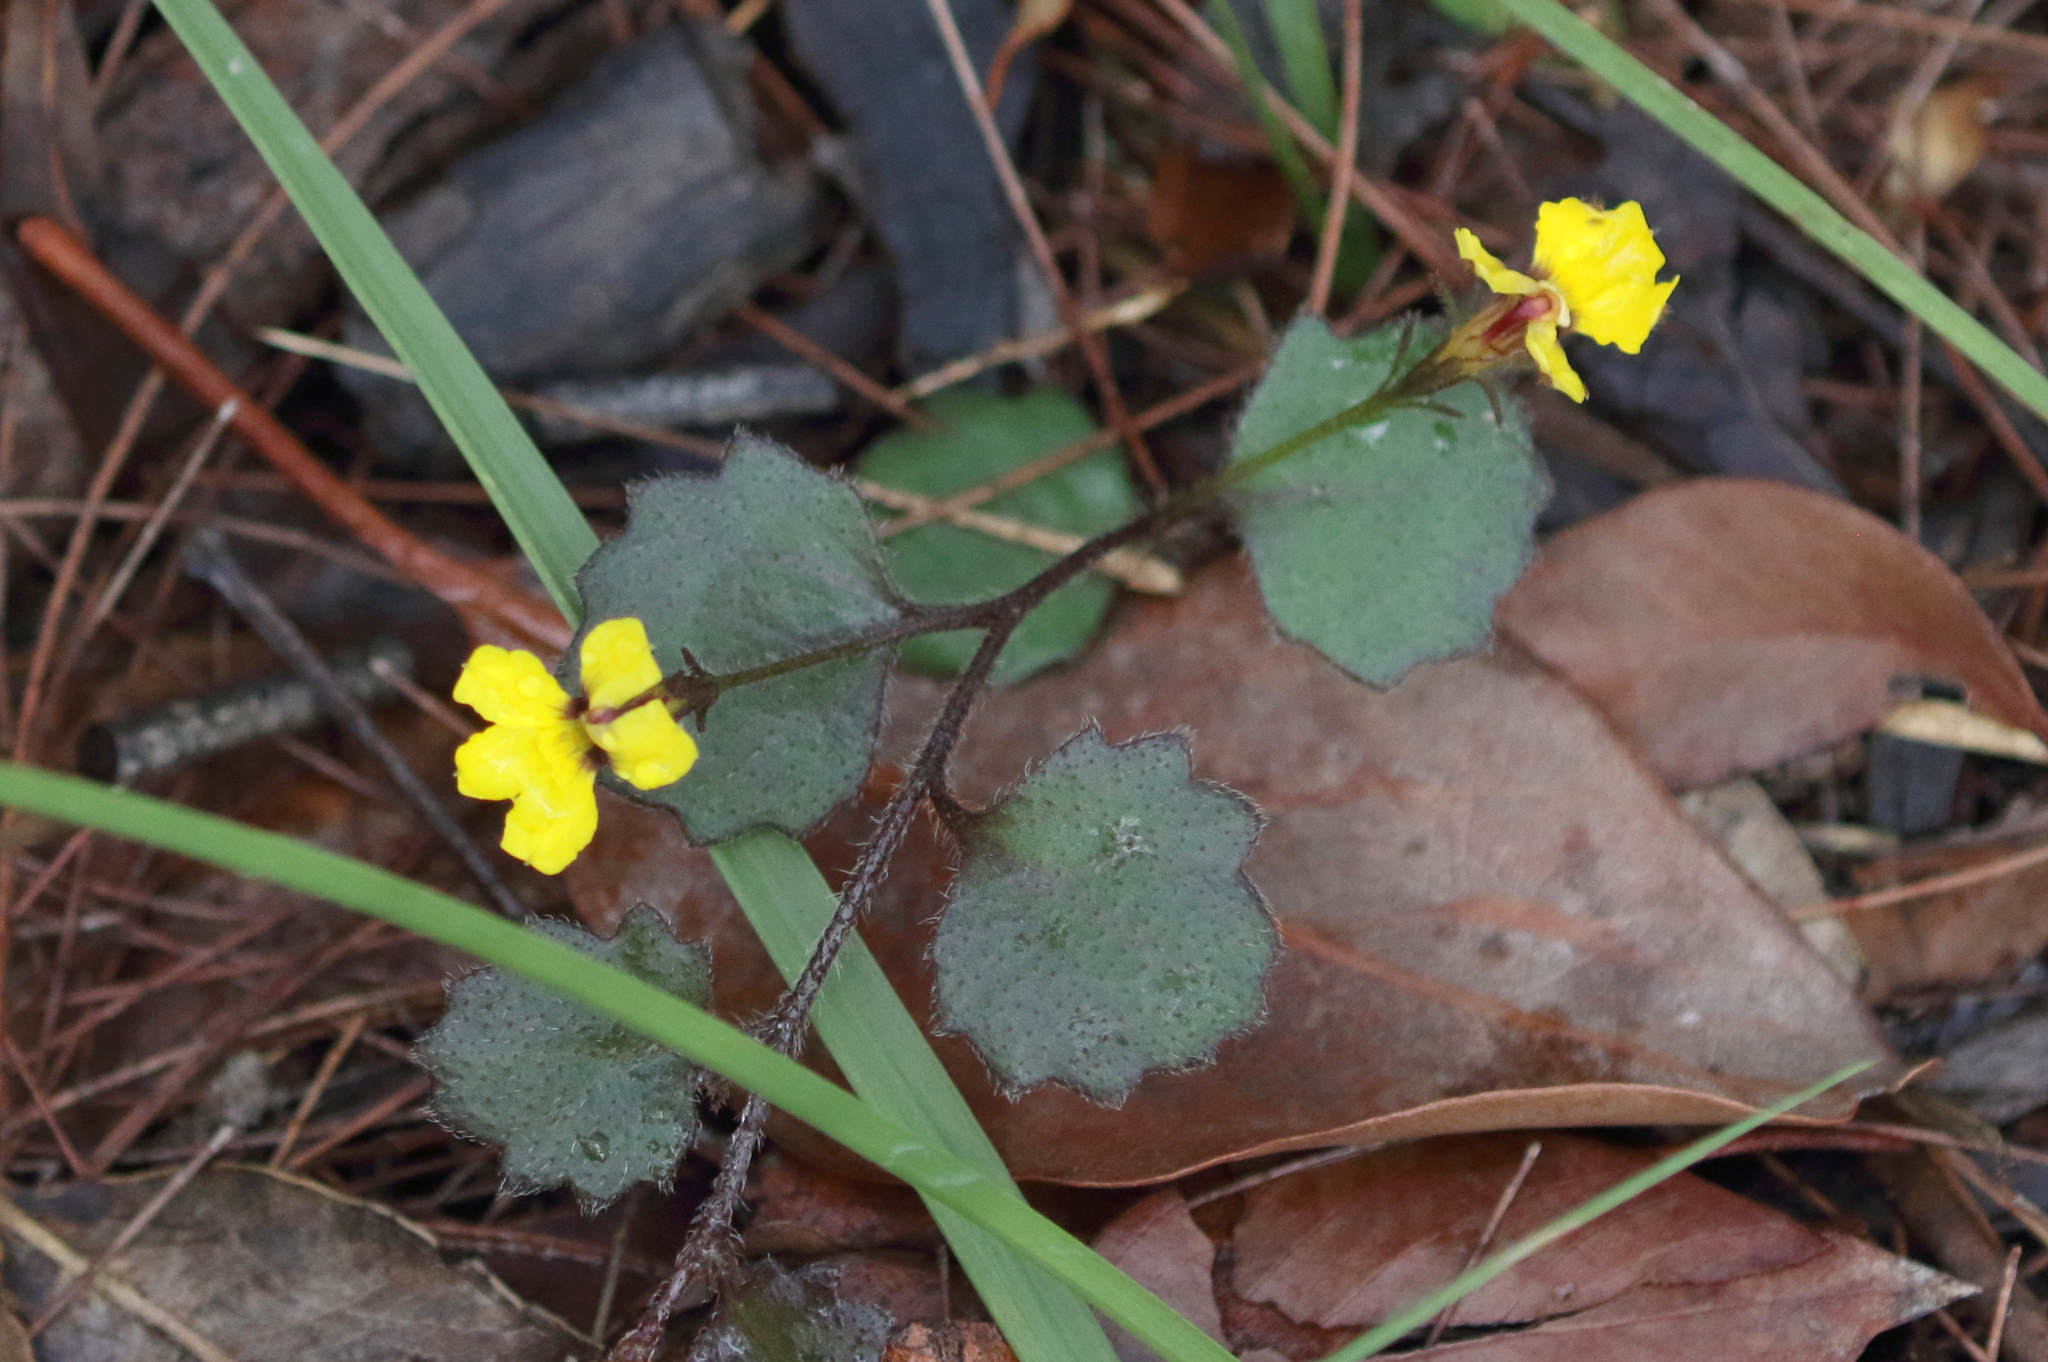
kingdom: Plantae
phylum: Tracheophyta
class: Magnoliopsida
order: Asterales
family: Goodeniaceae
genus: Goodenia
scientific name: Goodenia rotundifolia
